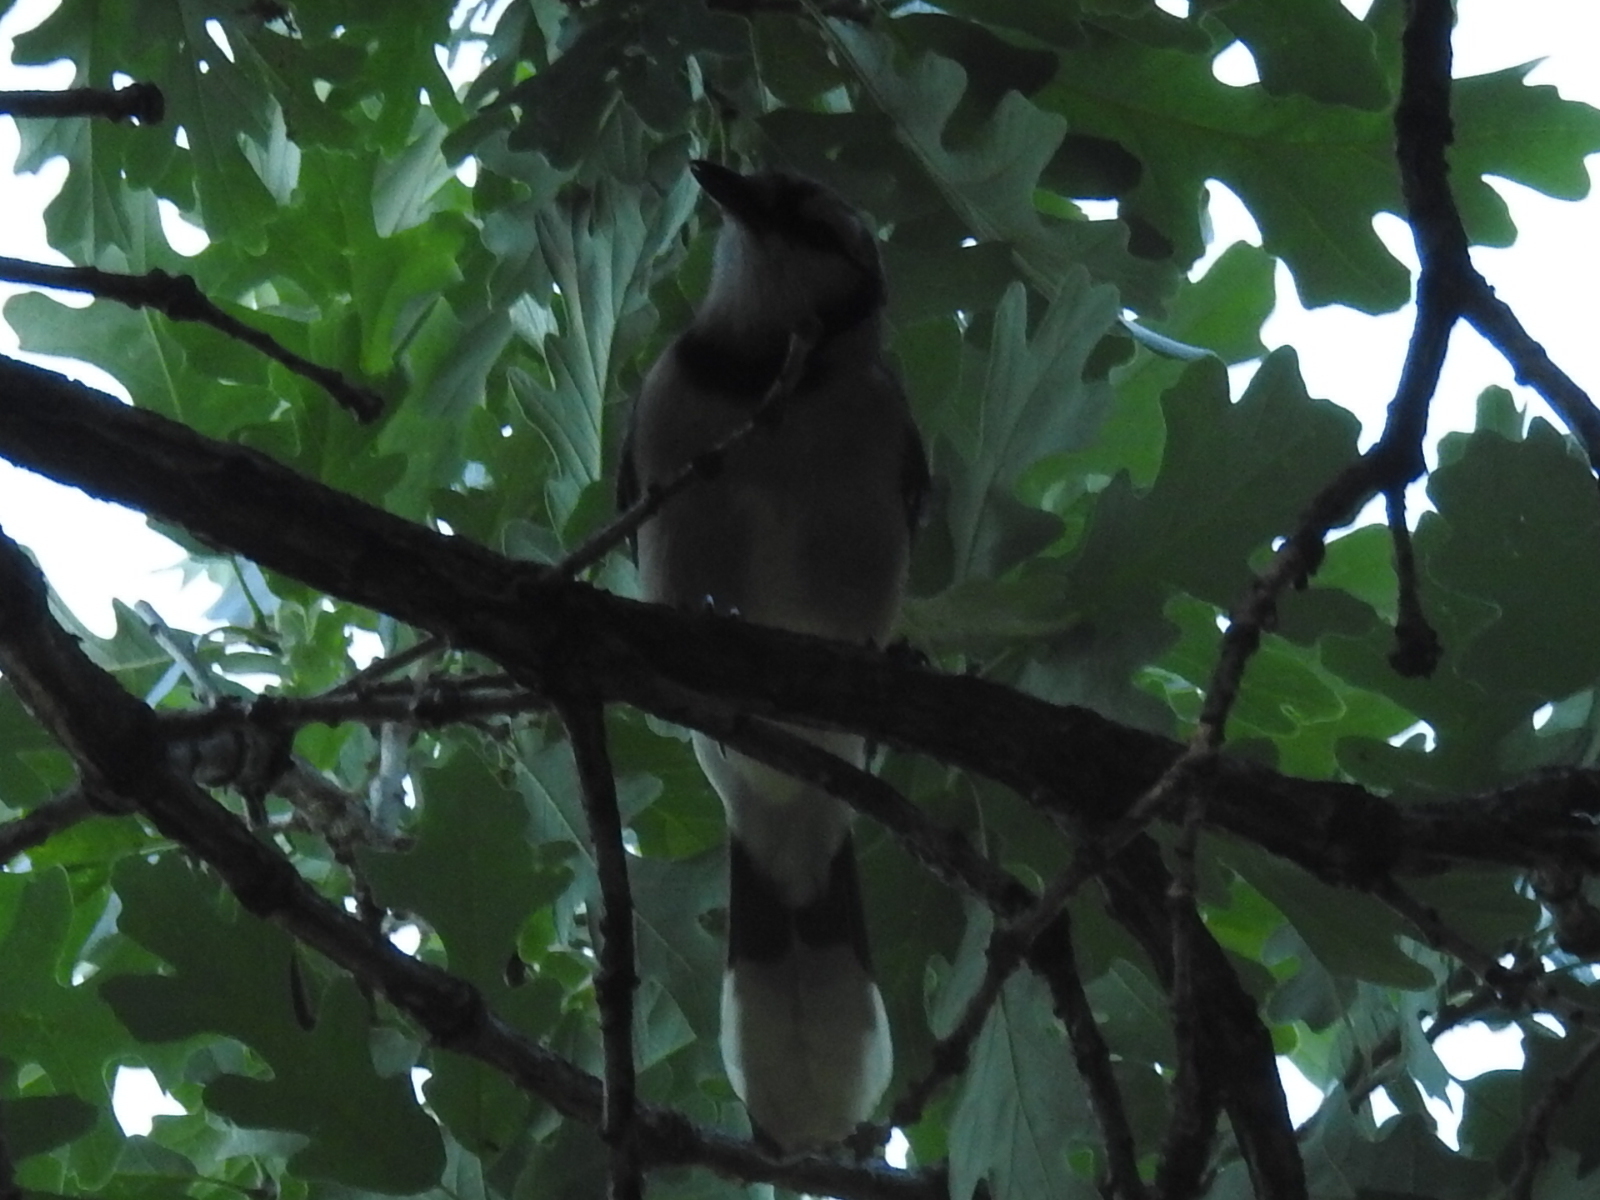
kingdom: Animalia
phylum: Chordata
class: Aves
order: Passeriformes
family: Corvidae
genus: Cyanocitta
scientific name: Cyanocitta cristata
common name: Blue jay
